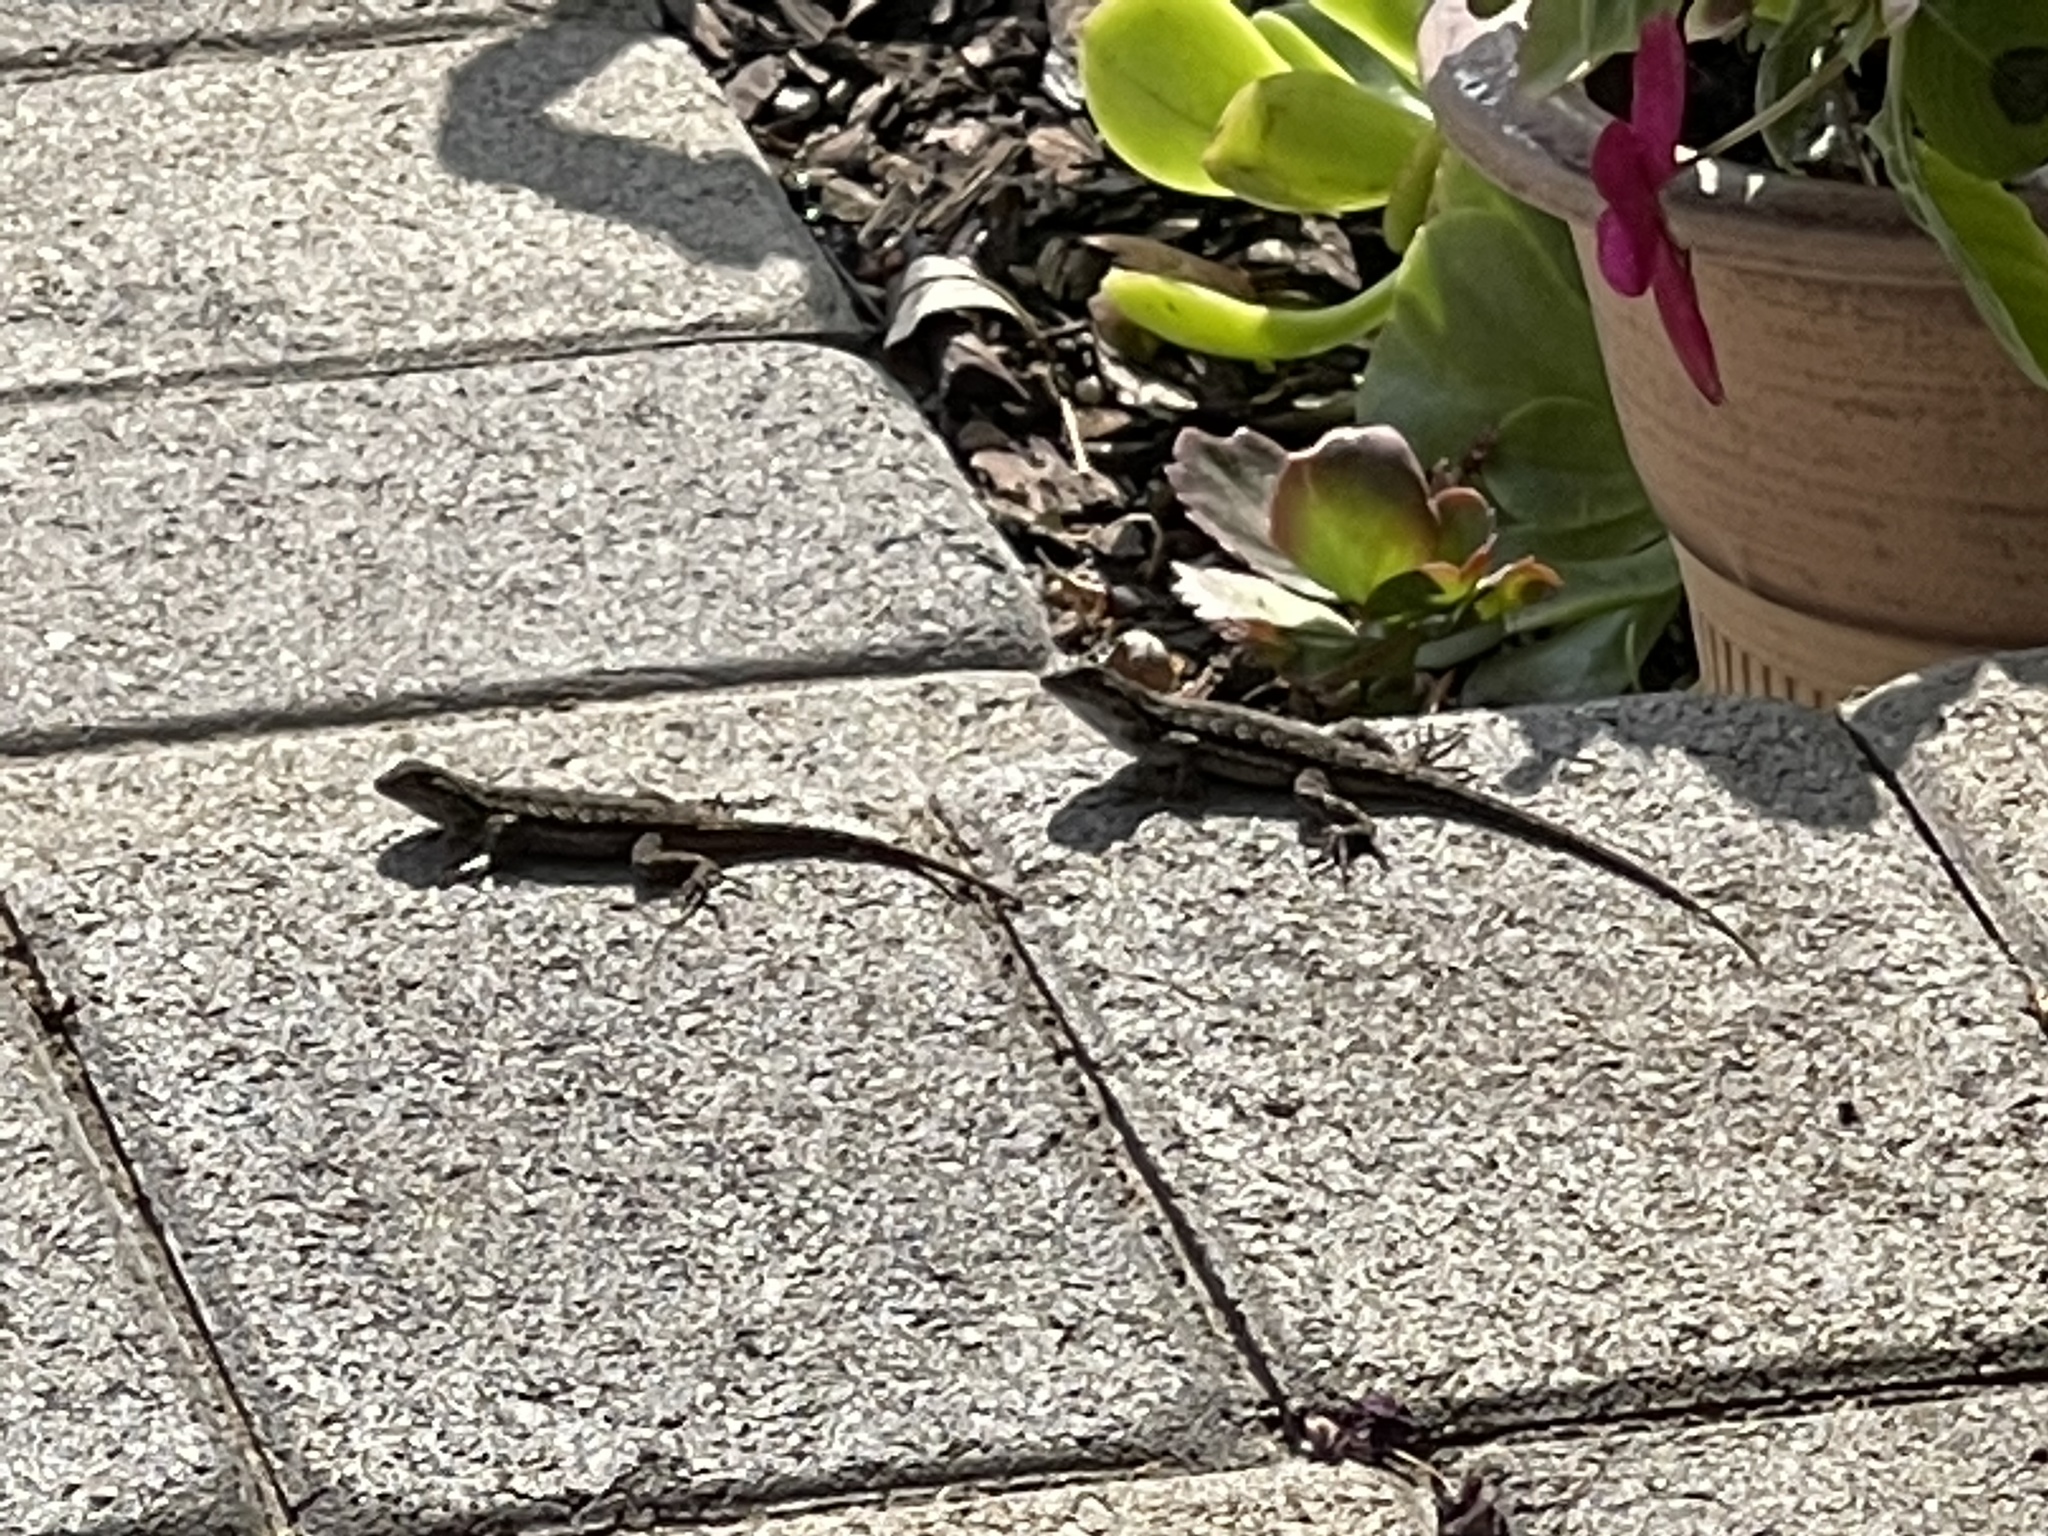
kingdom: Animalia
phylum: Chordata
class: Squamata
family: Phrynosomatidae
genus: Sceloporus
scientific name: Sceloporus occidentalis
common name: Western fence lizard
